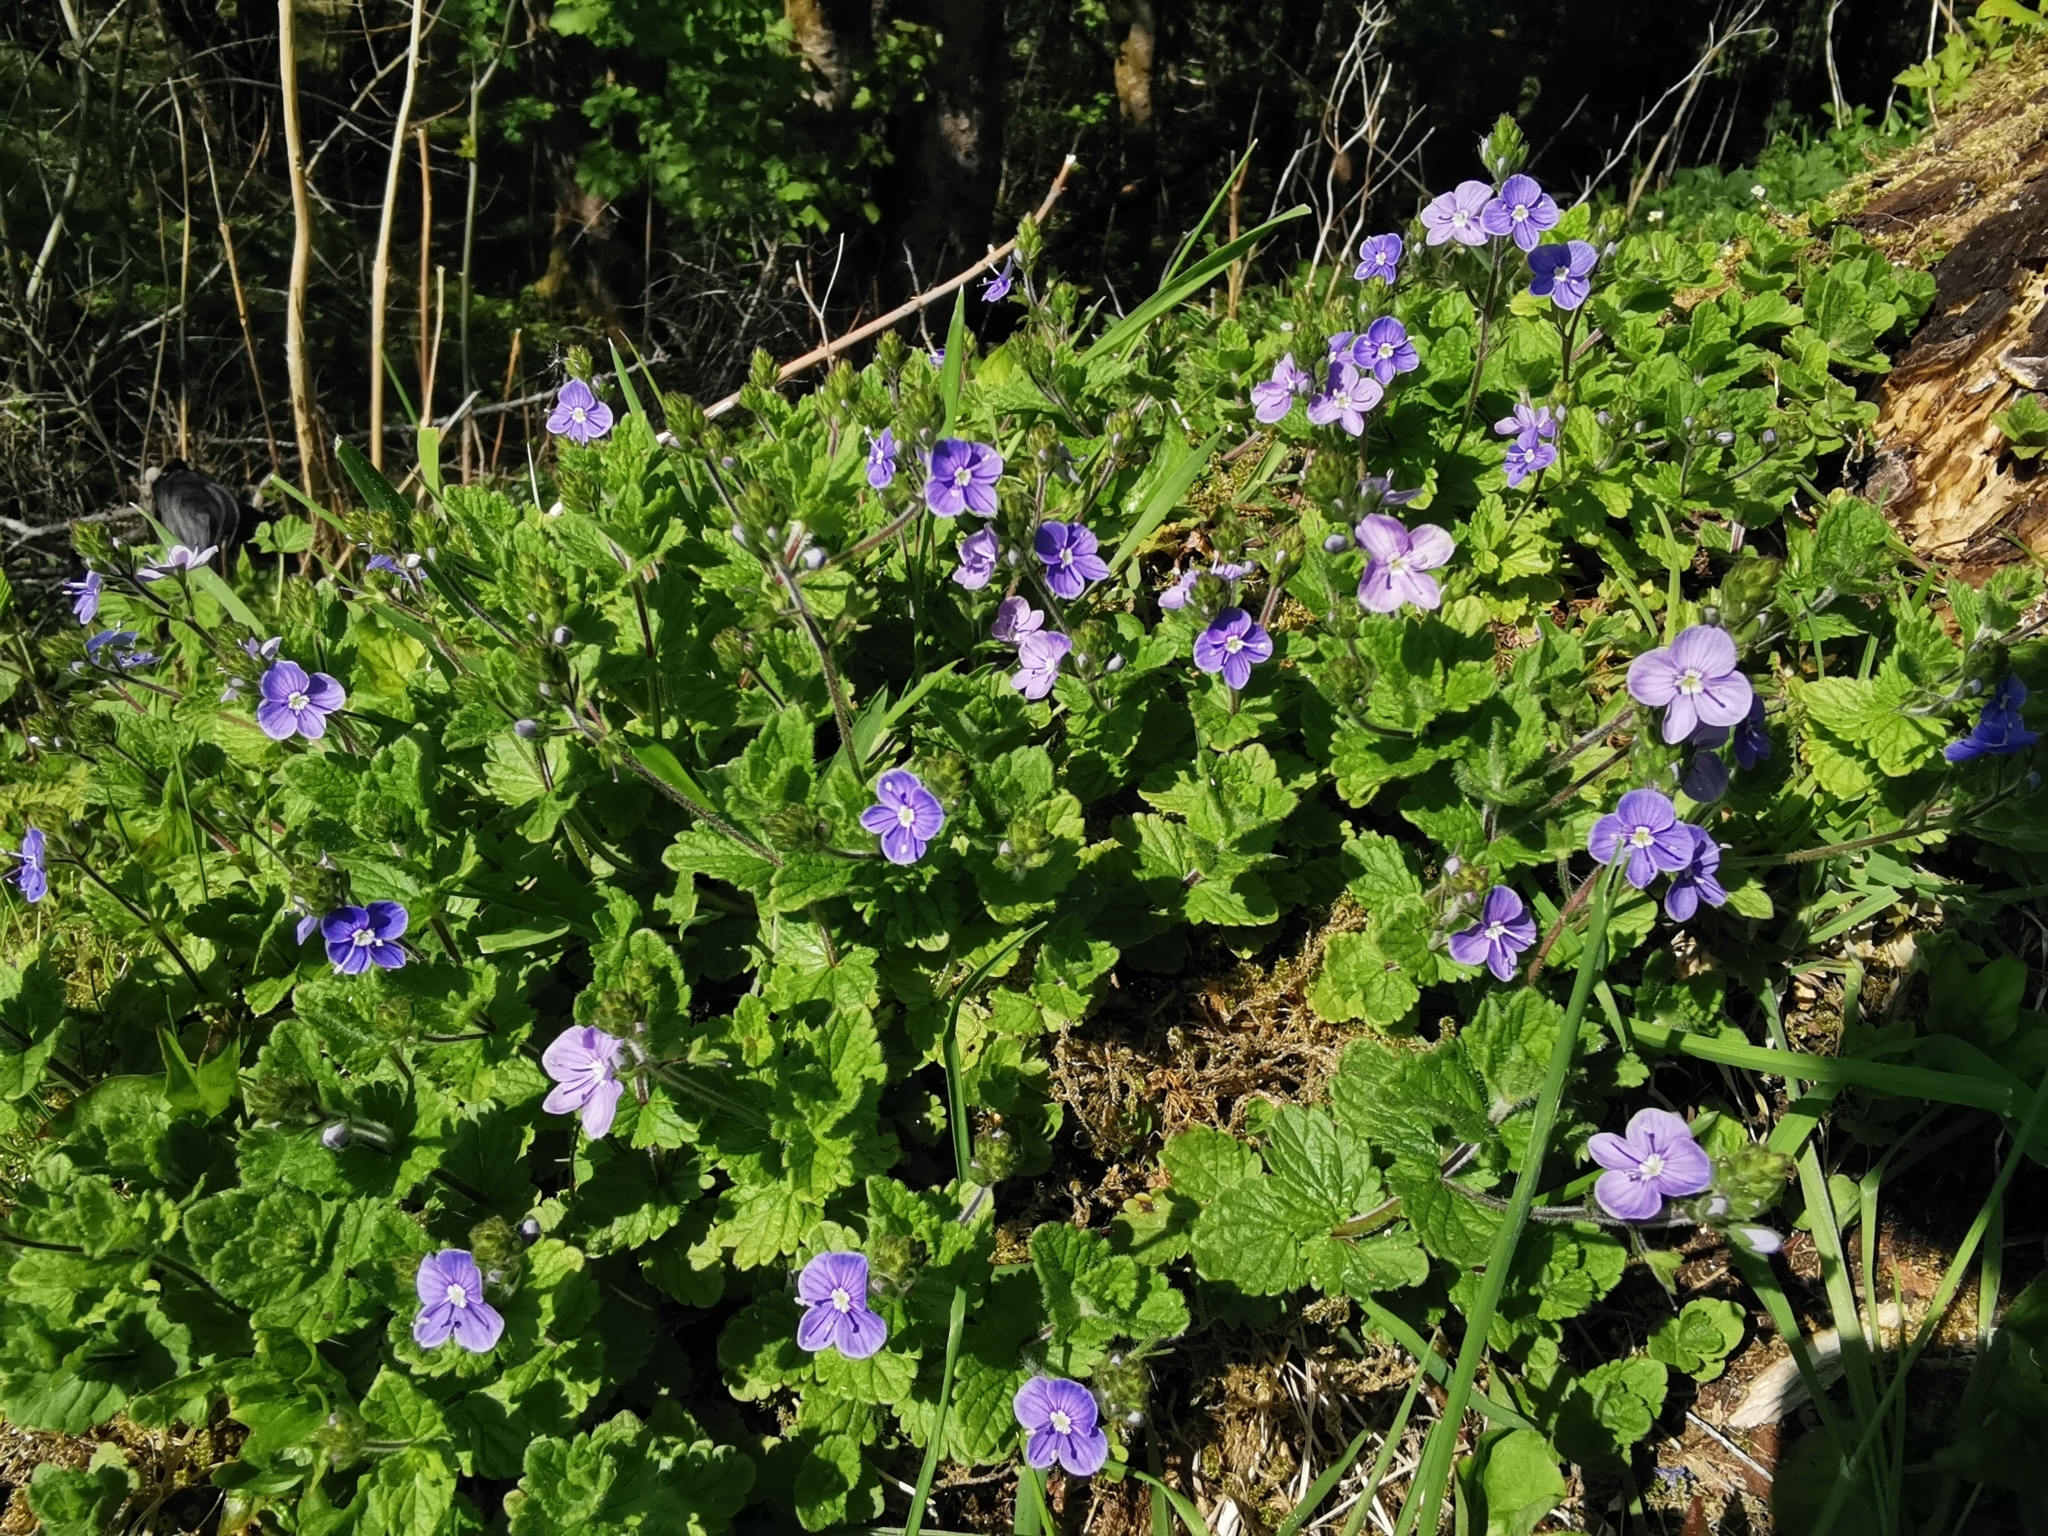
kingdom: Plantae
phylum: Tracheophyta
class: Magnoliopsida
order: Lamiales
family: Plantaginaceae
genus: Veronica
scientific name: Veronica chamaedrys
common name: Germander speedwell
